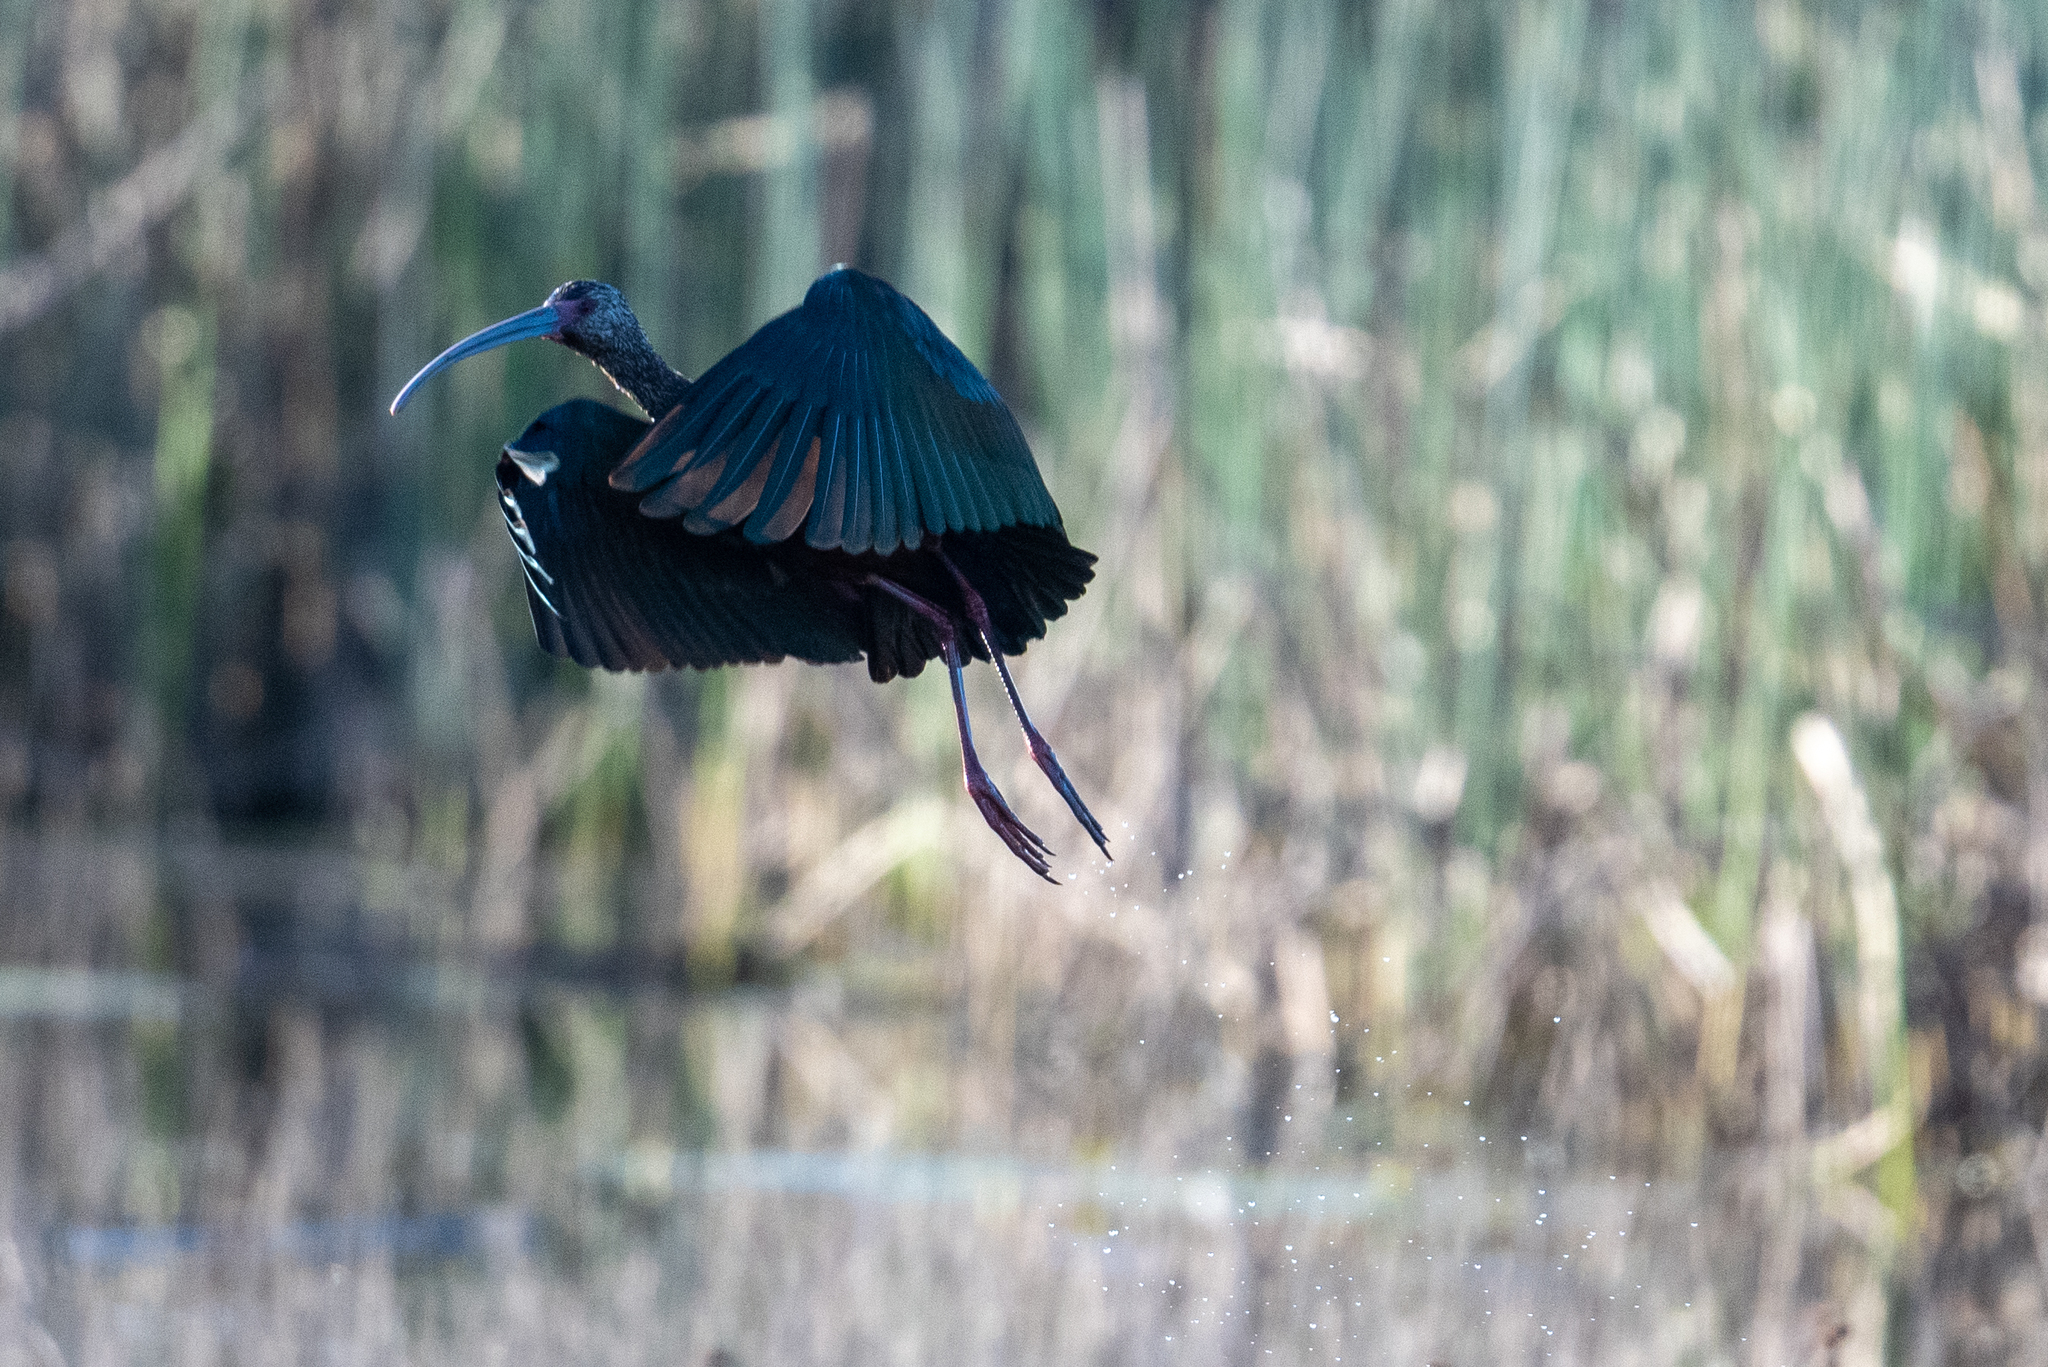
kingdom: Animalia
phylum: Chordata
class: Aves
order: Pelecaniformes
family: Threskiornithidae
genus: Plegadis
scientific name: Plegadis chihi
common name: White-faced ibis
